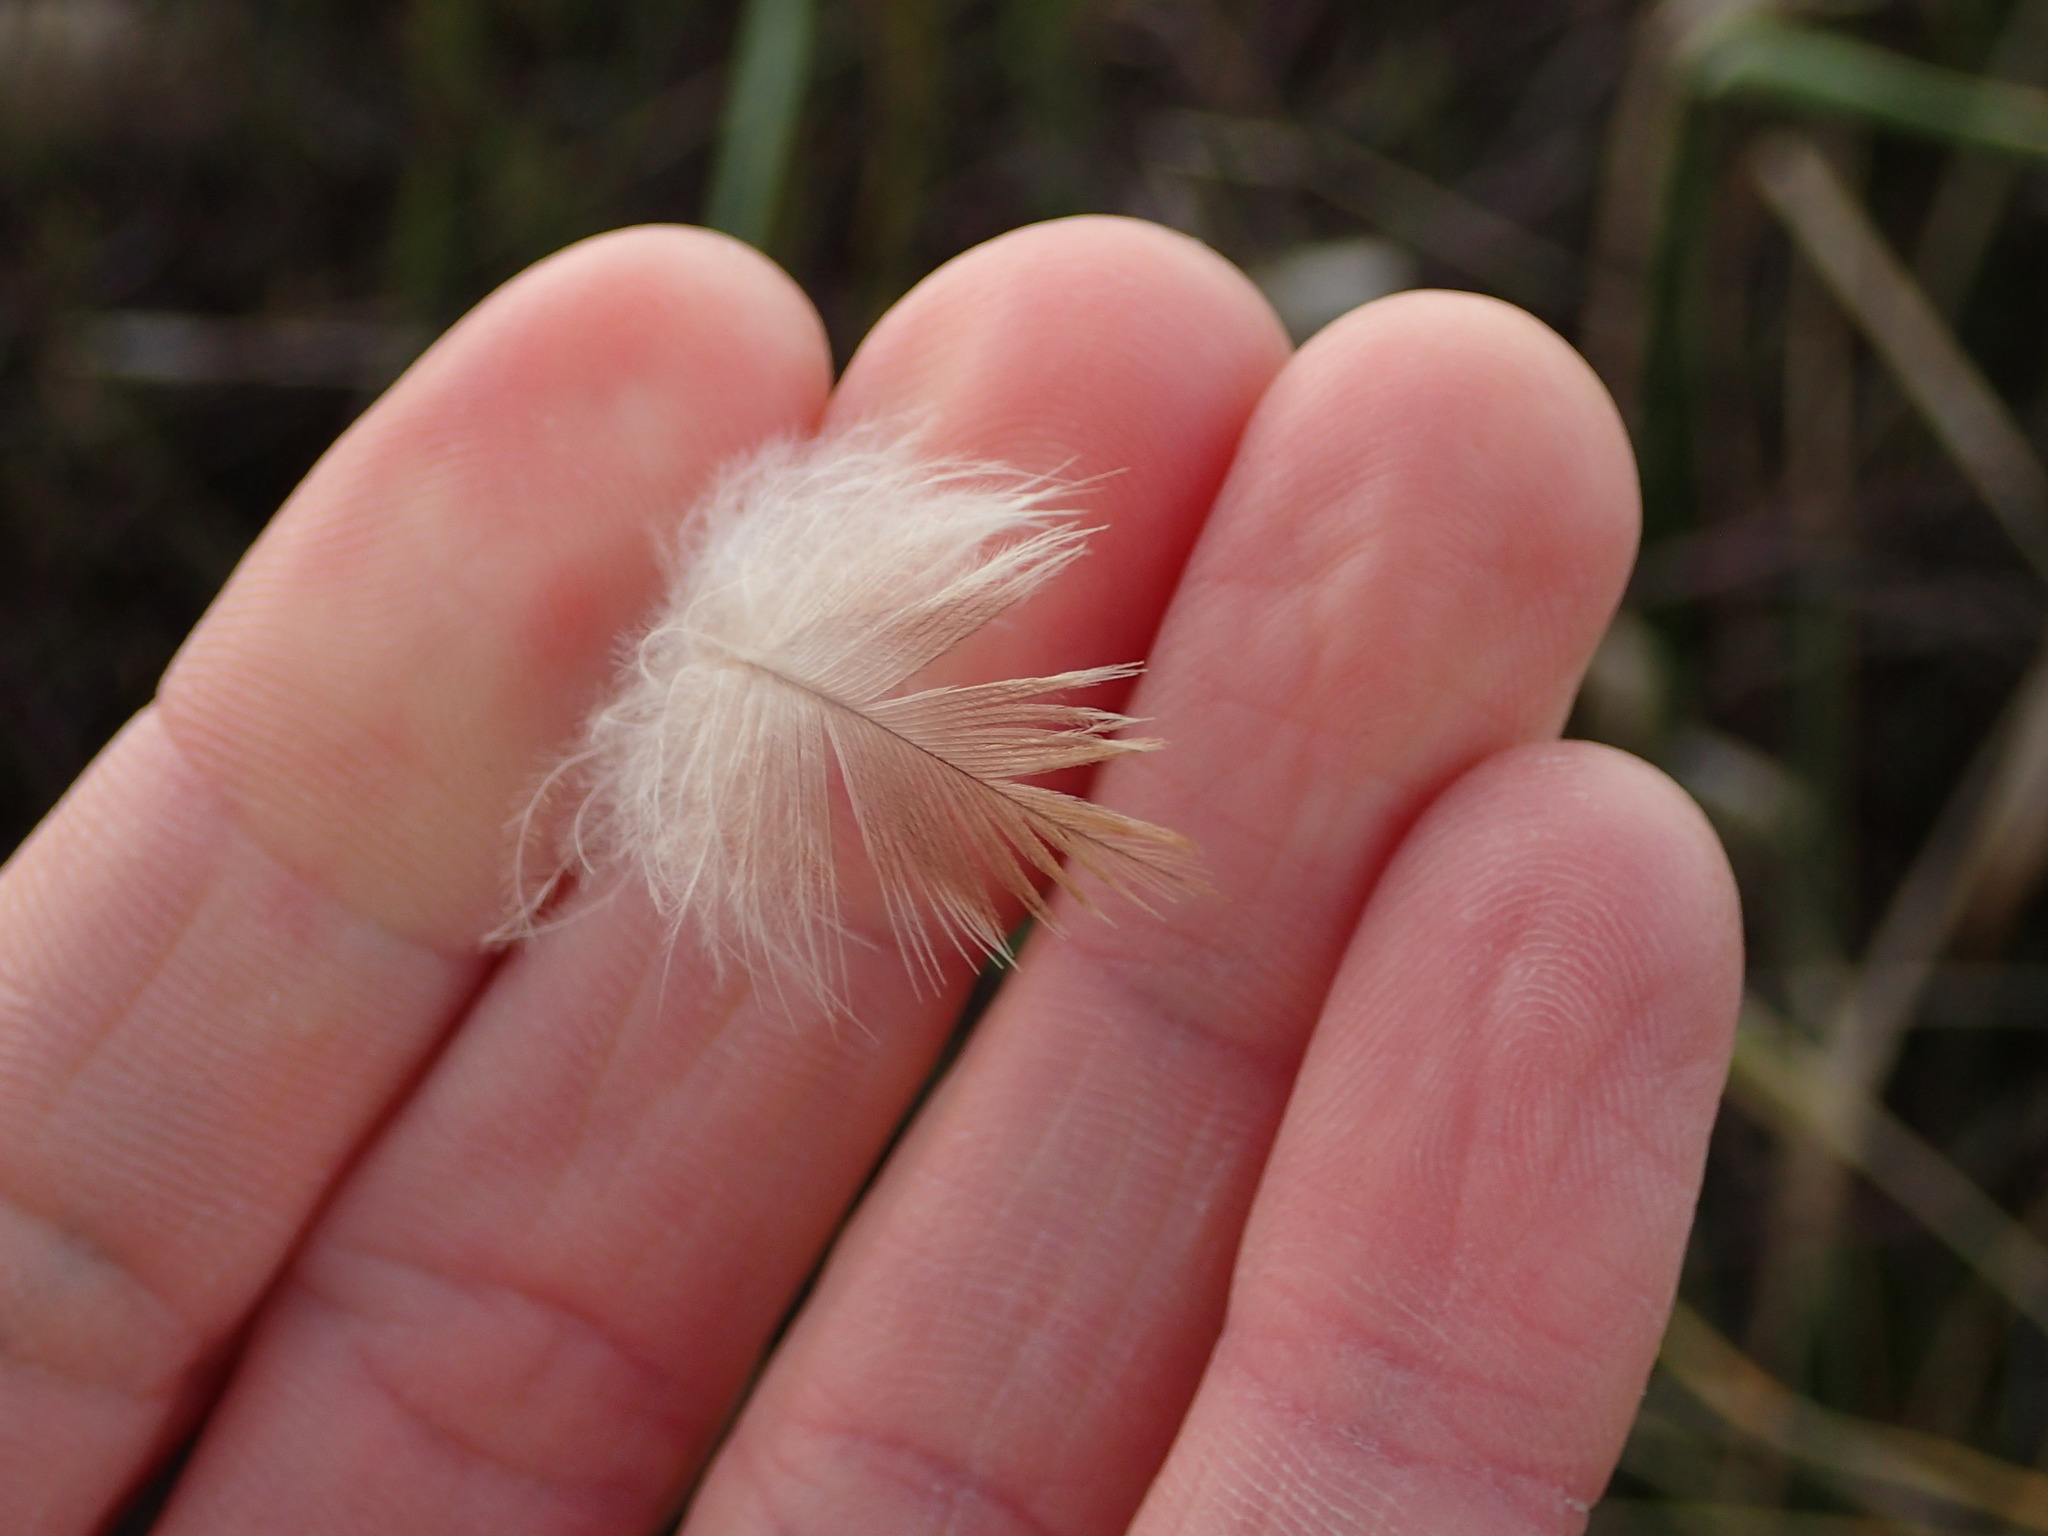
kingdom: Animalia
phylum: Chordata
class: Aves
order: Passeriformes
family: Locustellidae
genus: Poodytes
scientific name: Poodytes punctatus
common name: New zealand fernbird
